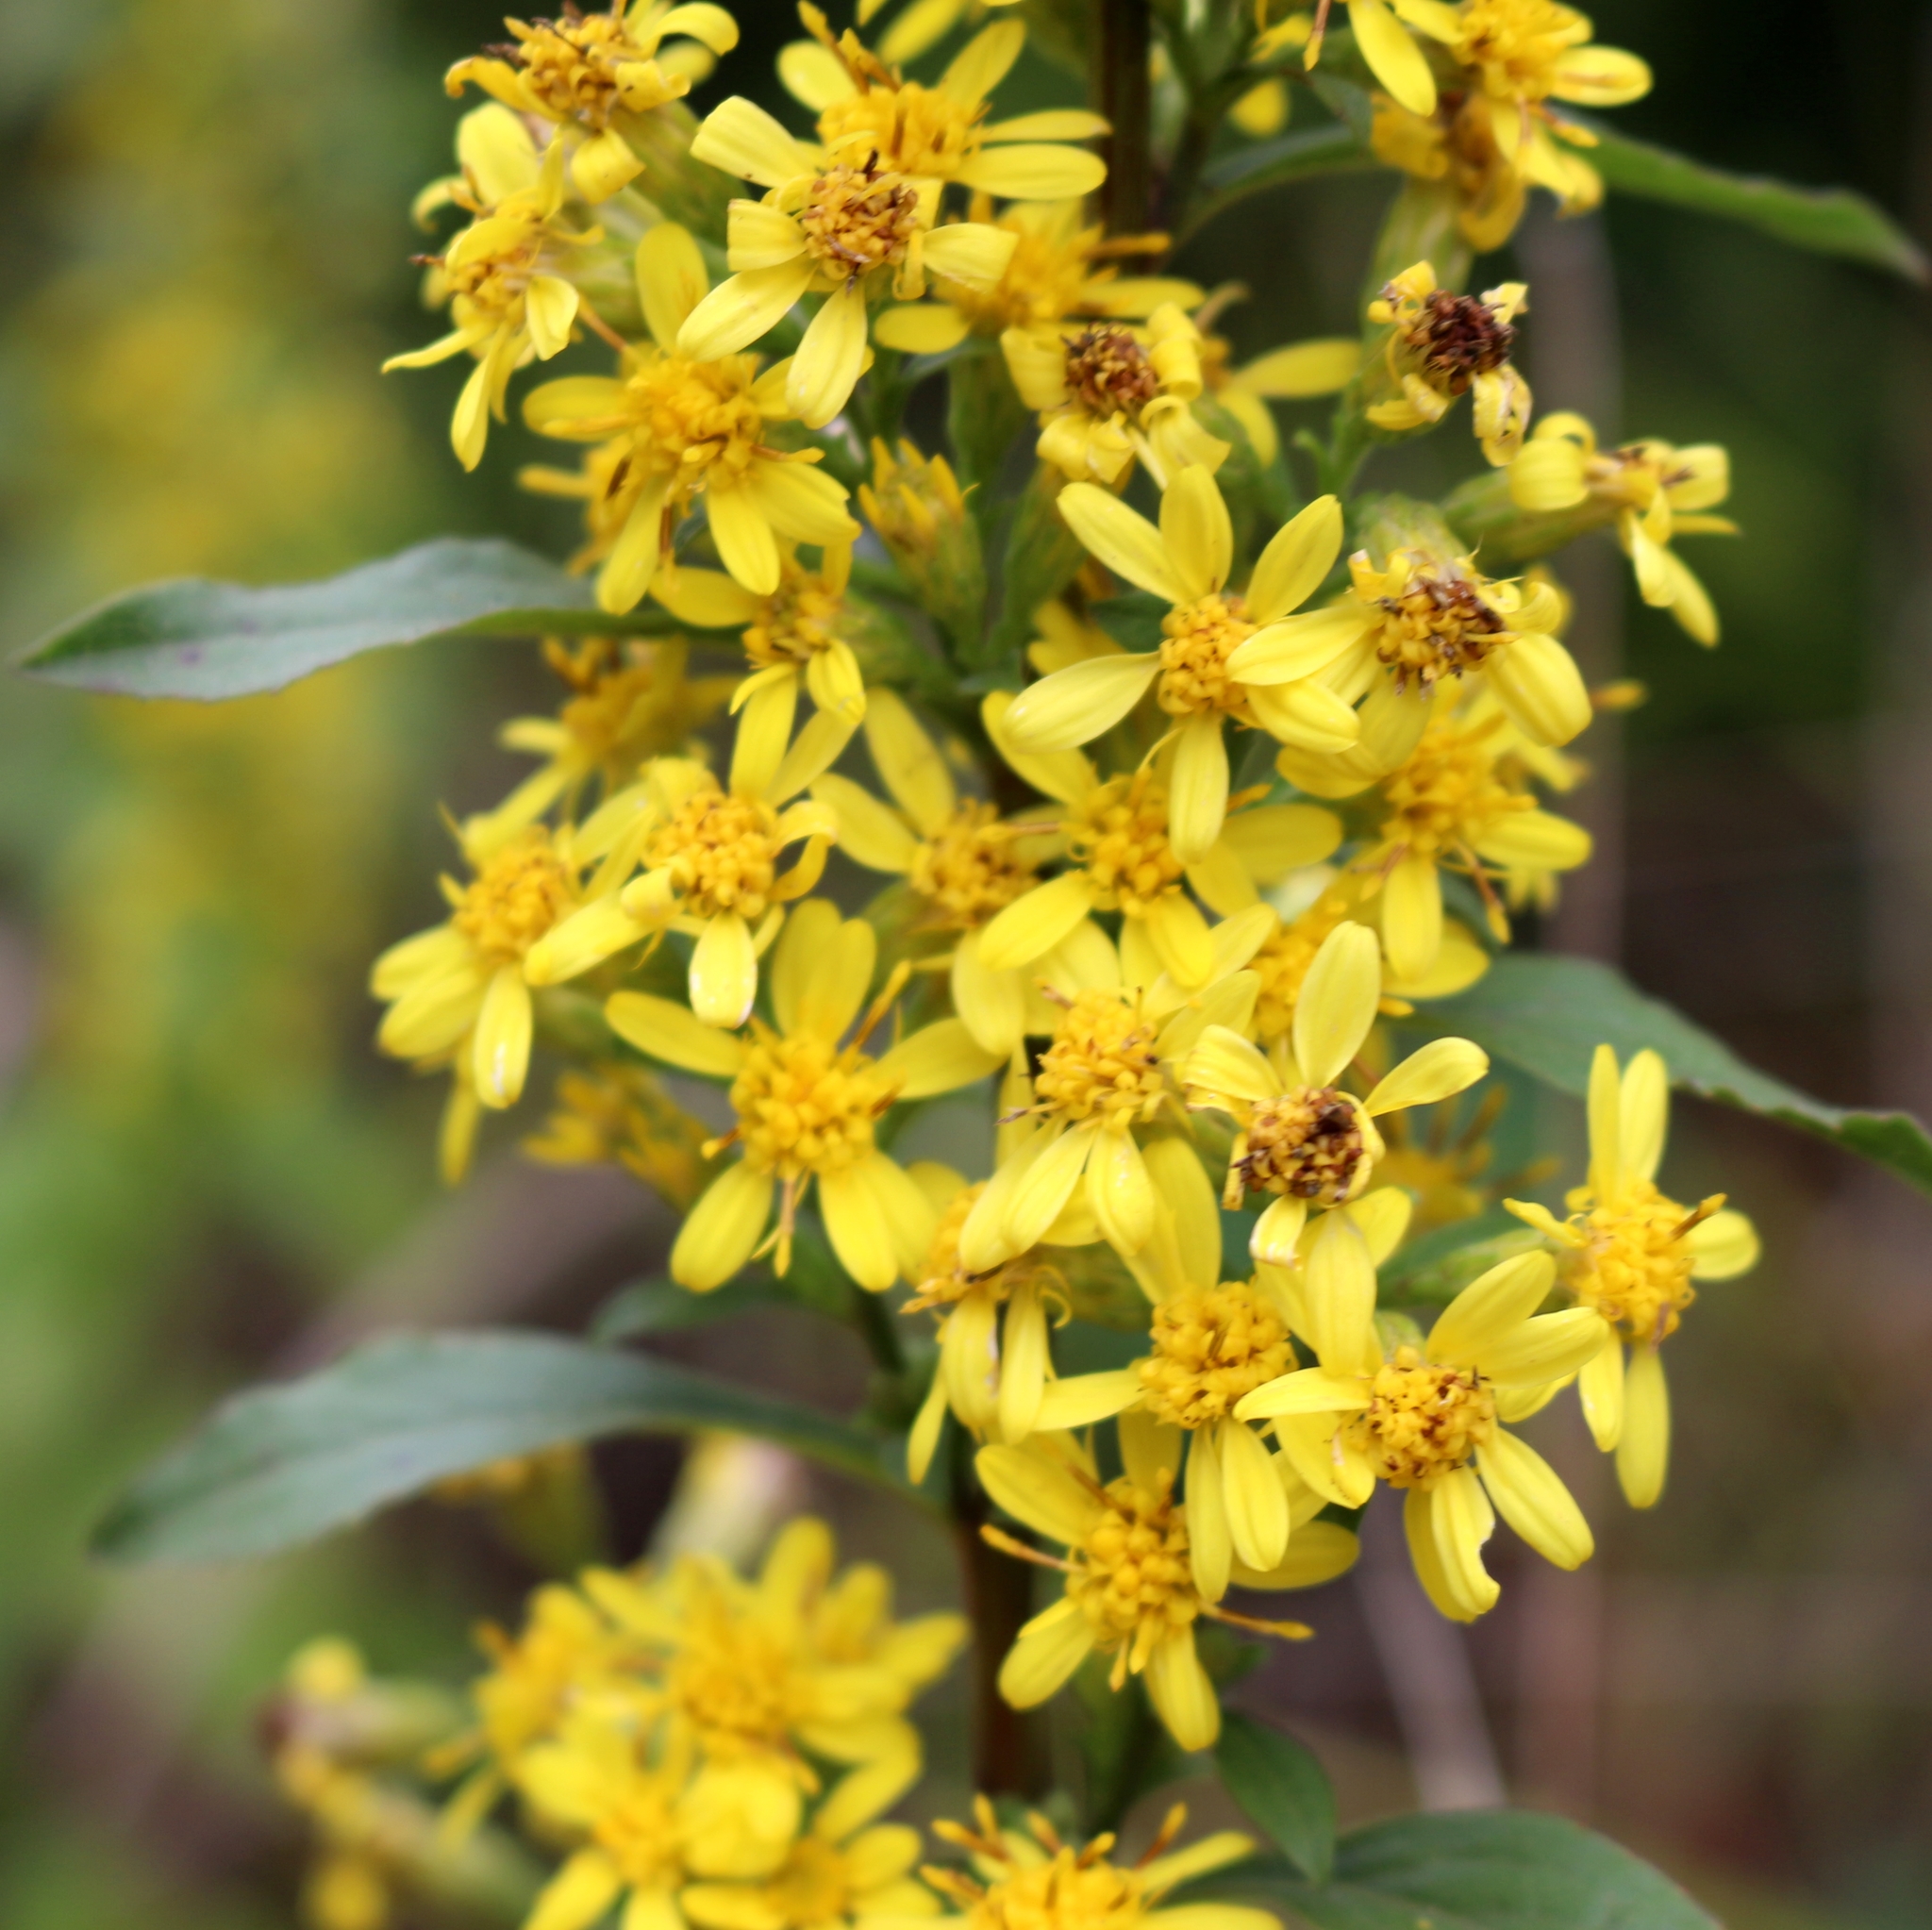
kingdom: Plantae
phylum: Tracheophyta
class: Magnoliopsida
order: Asterales
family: Asteraceae
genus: Solidago
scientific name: Solidago virgaurea
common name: Goldenrod
